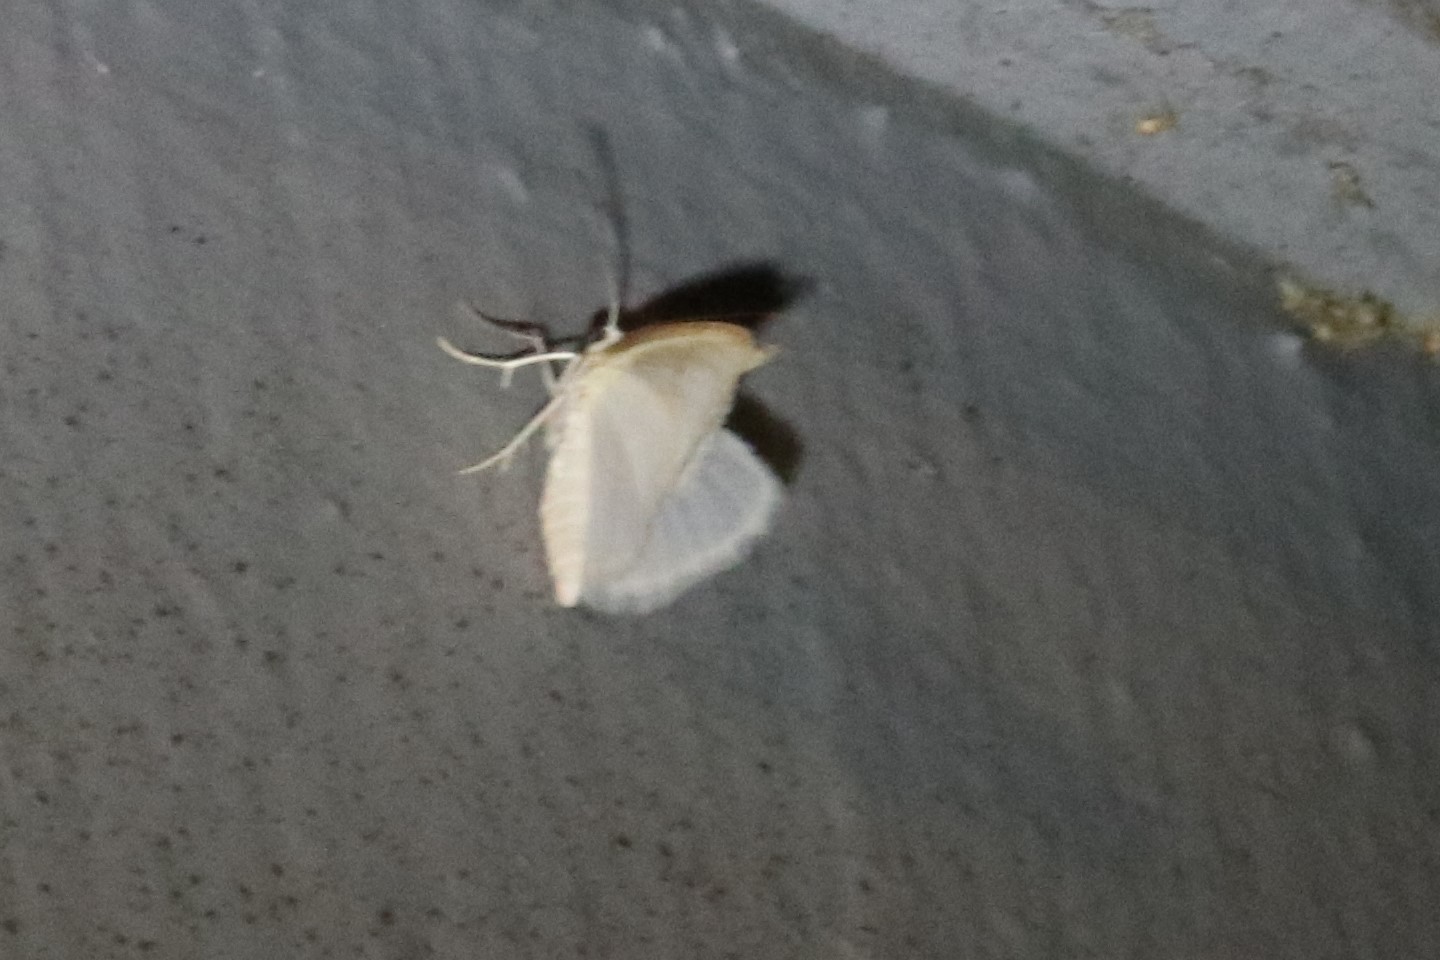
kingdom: Animalia
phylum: Arthropoda
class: Insecta
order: Lepidoptera
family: Geometridae
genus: Lomographa
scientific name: Lomographa vestaliata
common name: White spring moth
